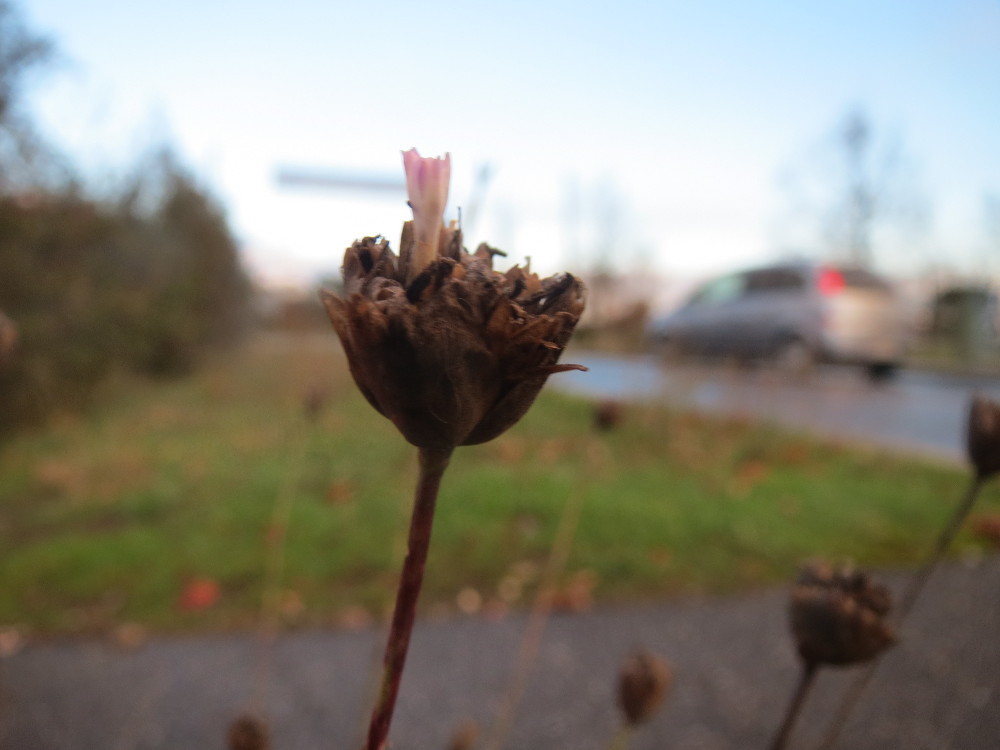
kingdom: Plantae
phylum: Tracheophyta
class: Magnoliopsida
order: Caryophyllales
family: Caryophyllaceae
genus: Petrorhagia
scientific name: Petrorhagia prolifera
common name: Proliferous pink
